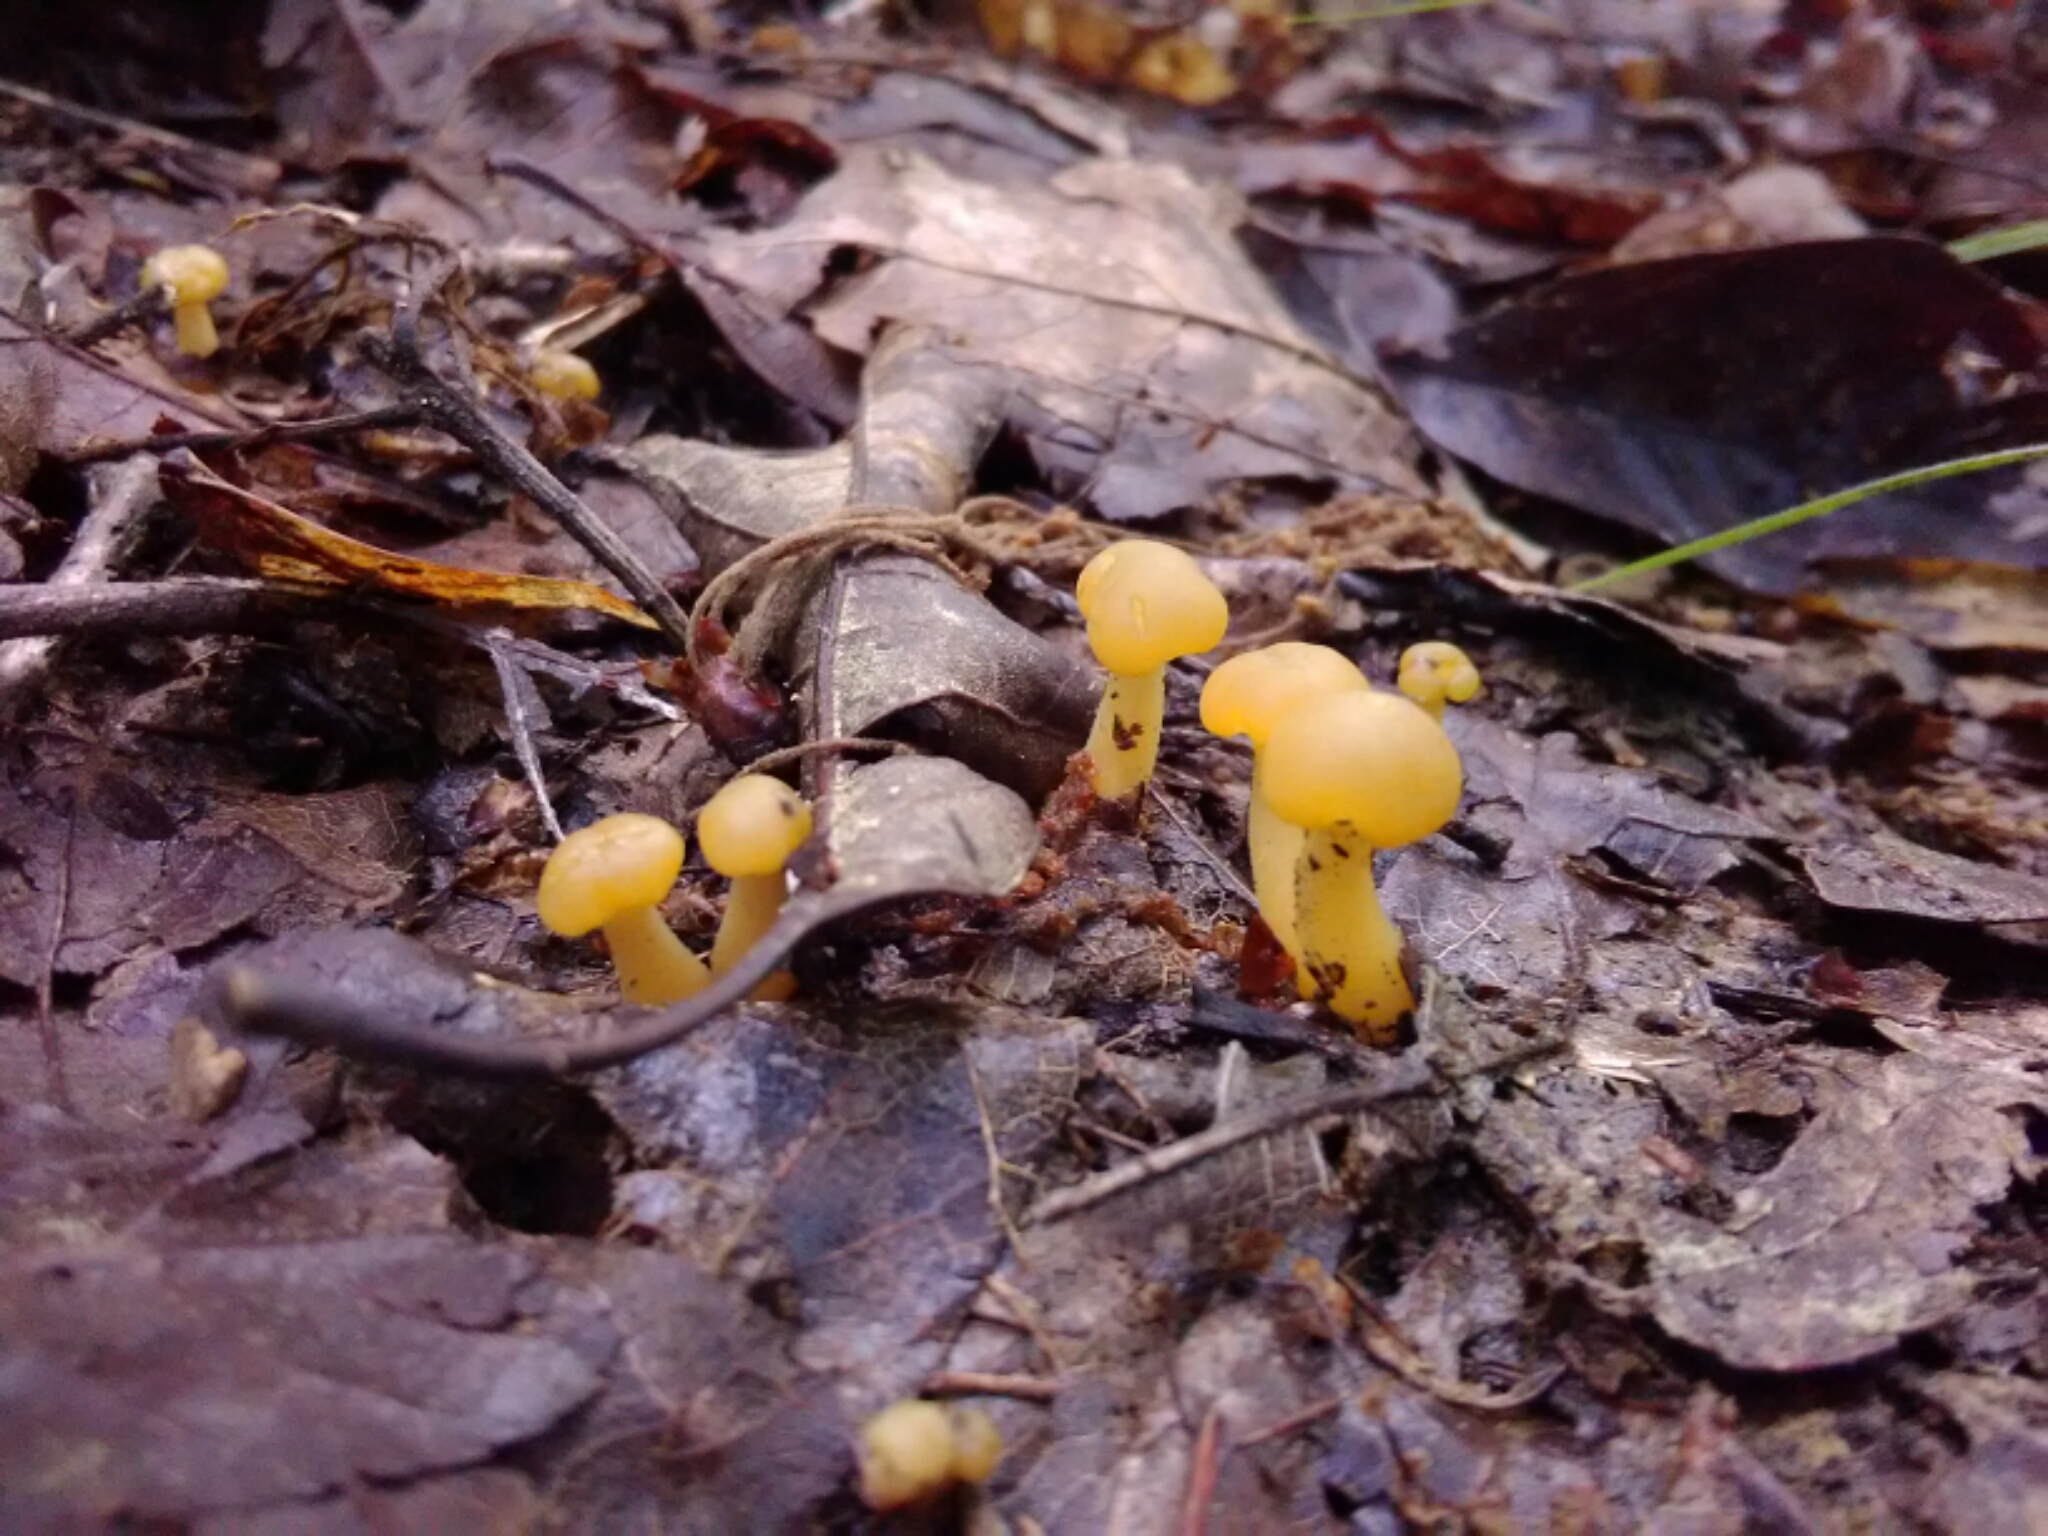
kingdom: Fungi
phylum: Ascomycota
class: Leotiomycetes
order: Leotiales
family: Leotiaceae
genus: Leotia
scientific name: Leotia lubrica
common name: Jellybaby
